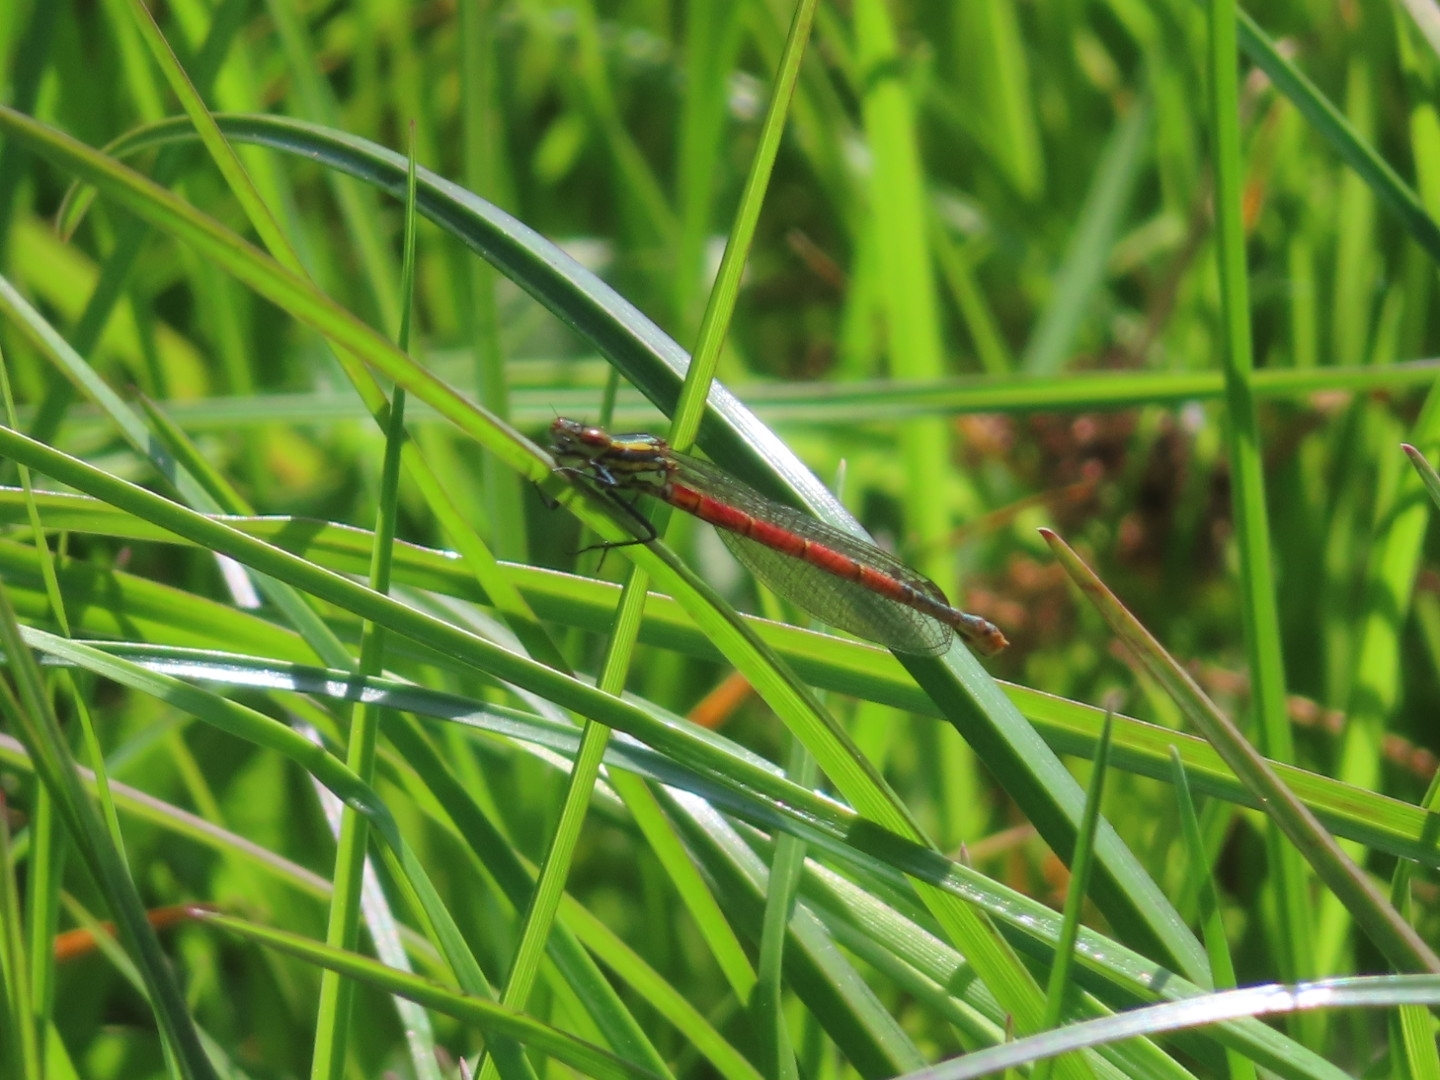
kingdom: Animalia
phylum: Arthropoda
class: Insecta
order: Odonata
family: Coenagrionidae
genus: Pyrrhosoma
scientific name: Pyrrhosoma nymphula
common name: Large red damsel
